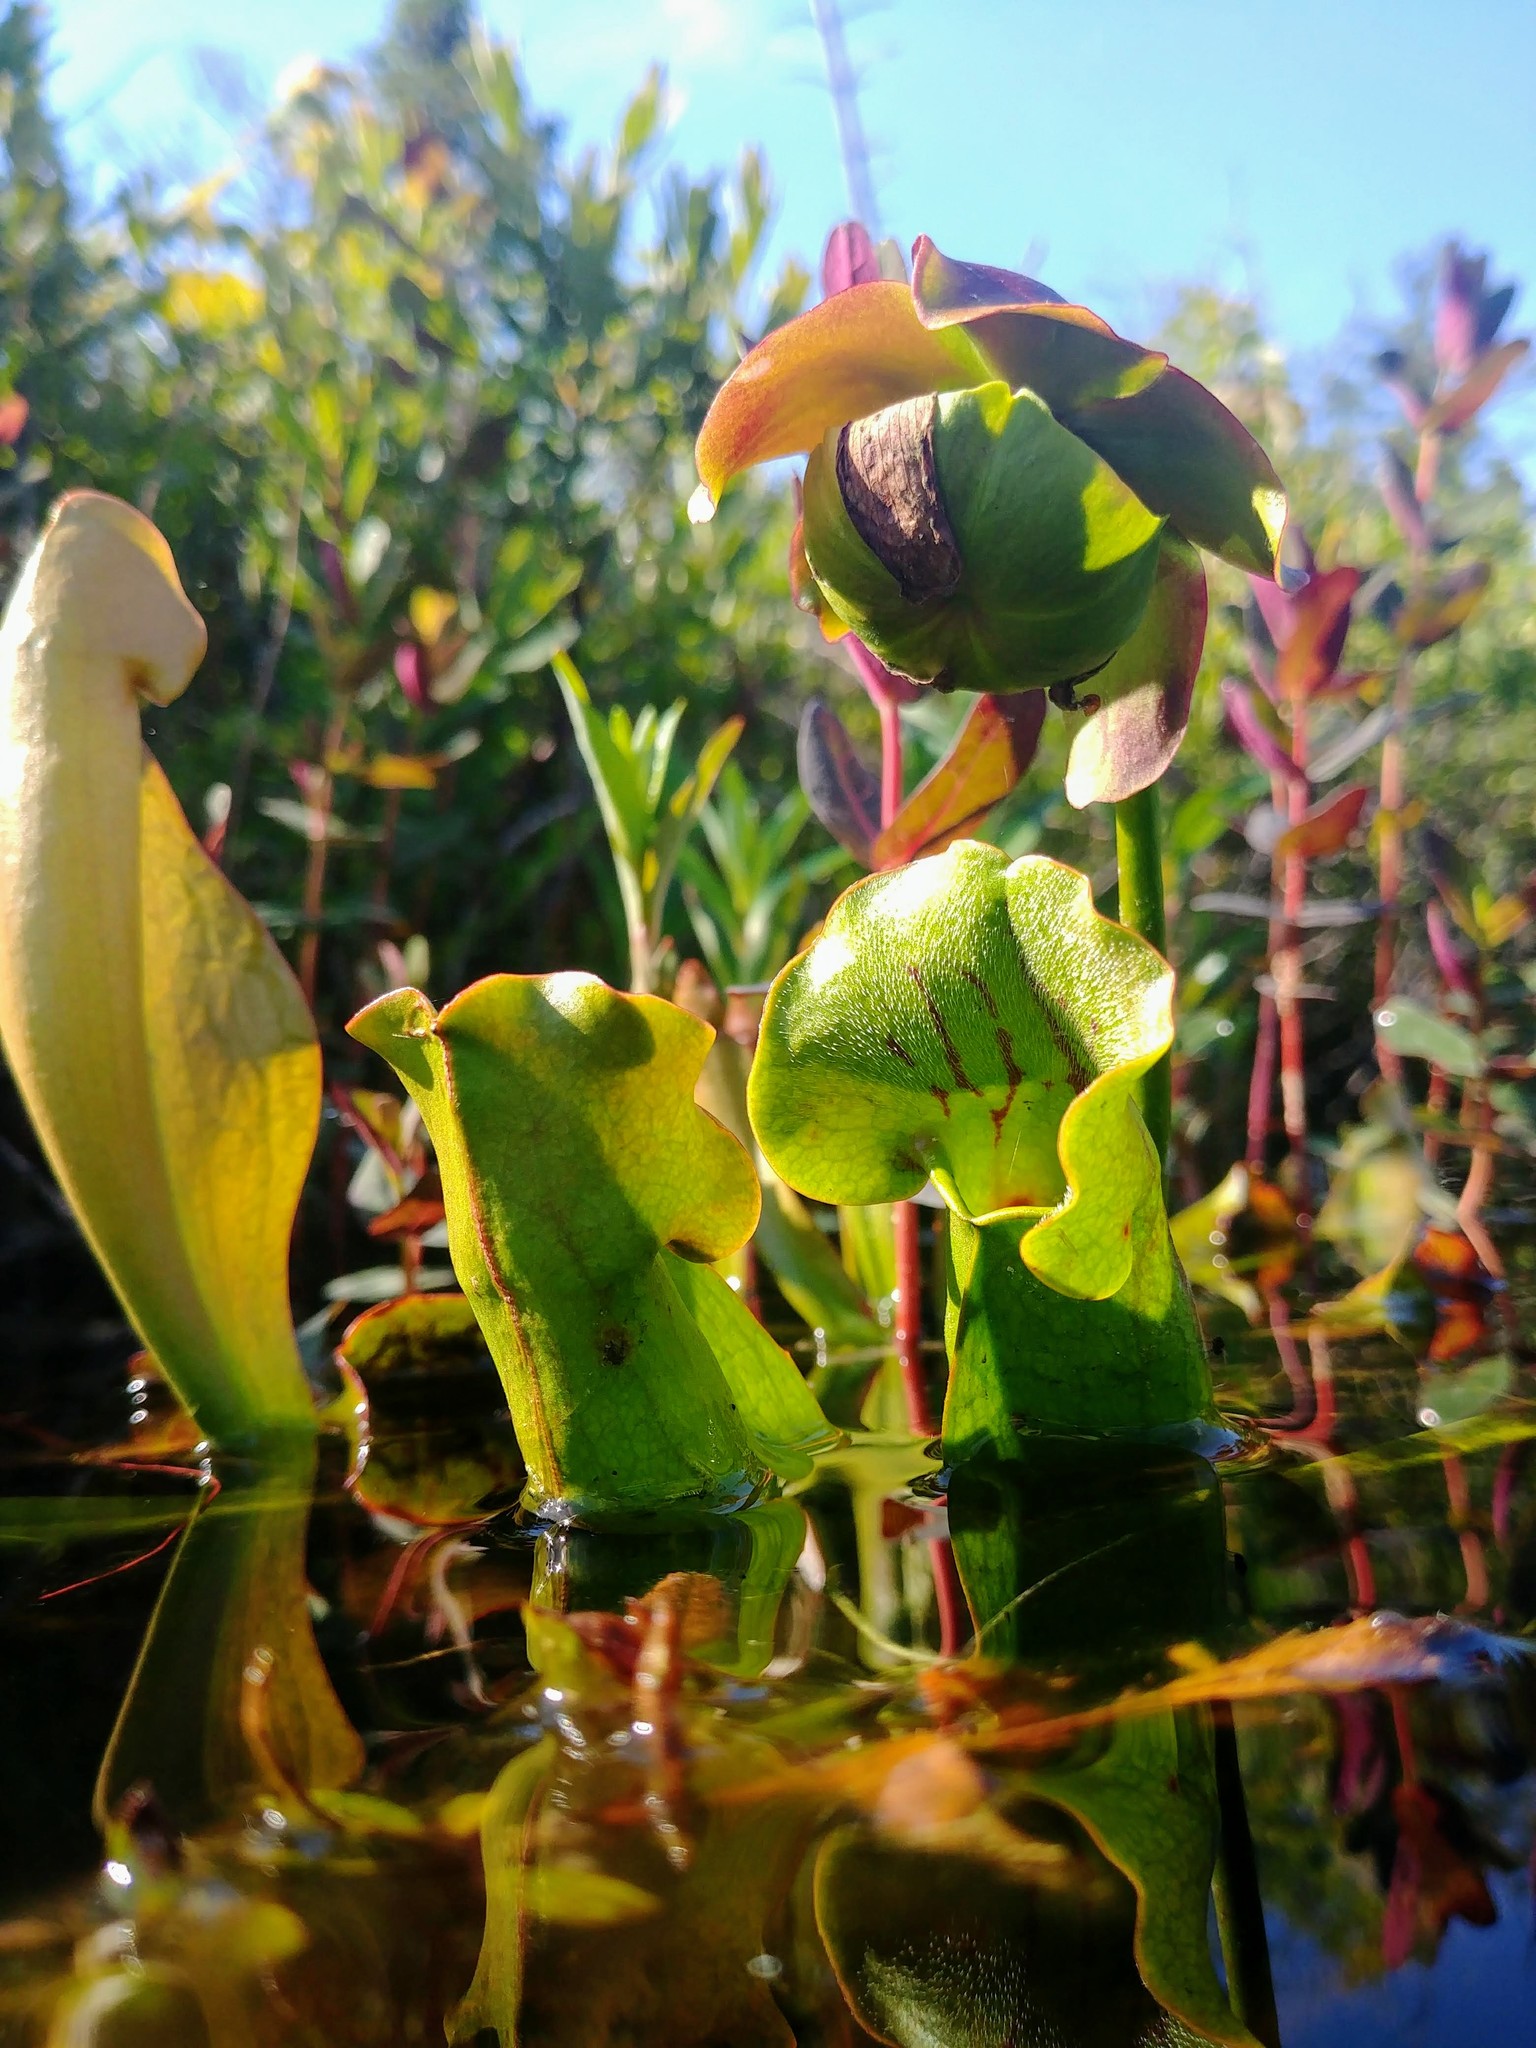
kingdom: Plantae
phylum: Tracheophyta
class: Magnoliopsida
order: Ericales
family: Sarraceniaceae
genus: Sarracenia
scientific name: Sarracenia purpurea
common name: Pitcherplant
